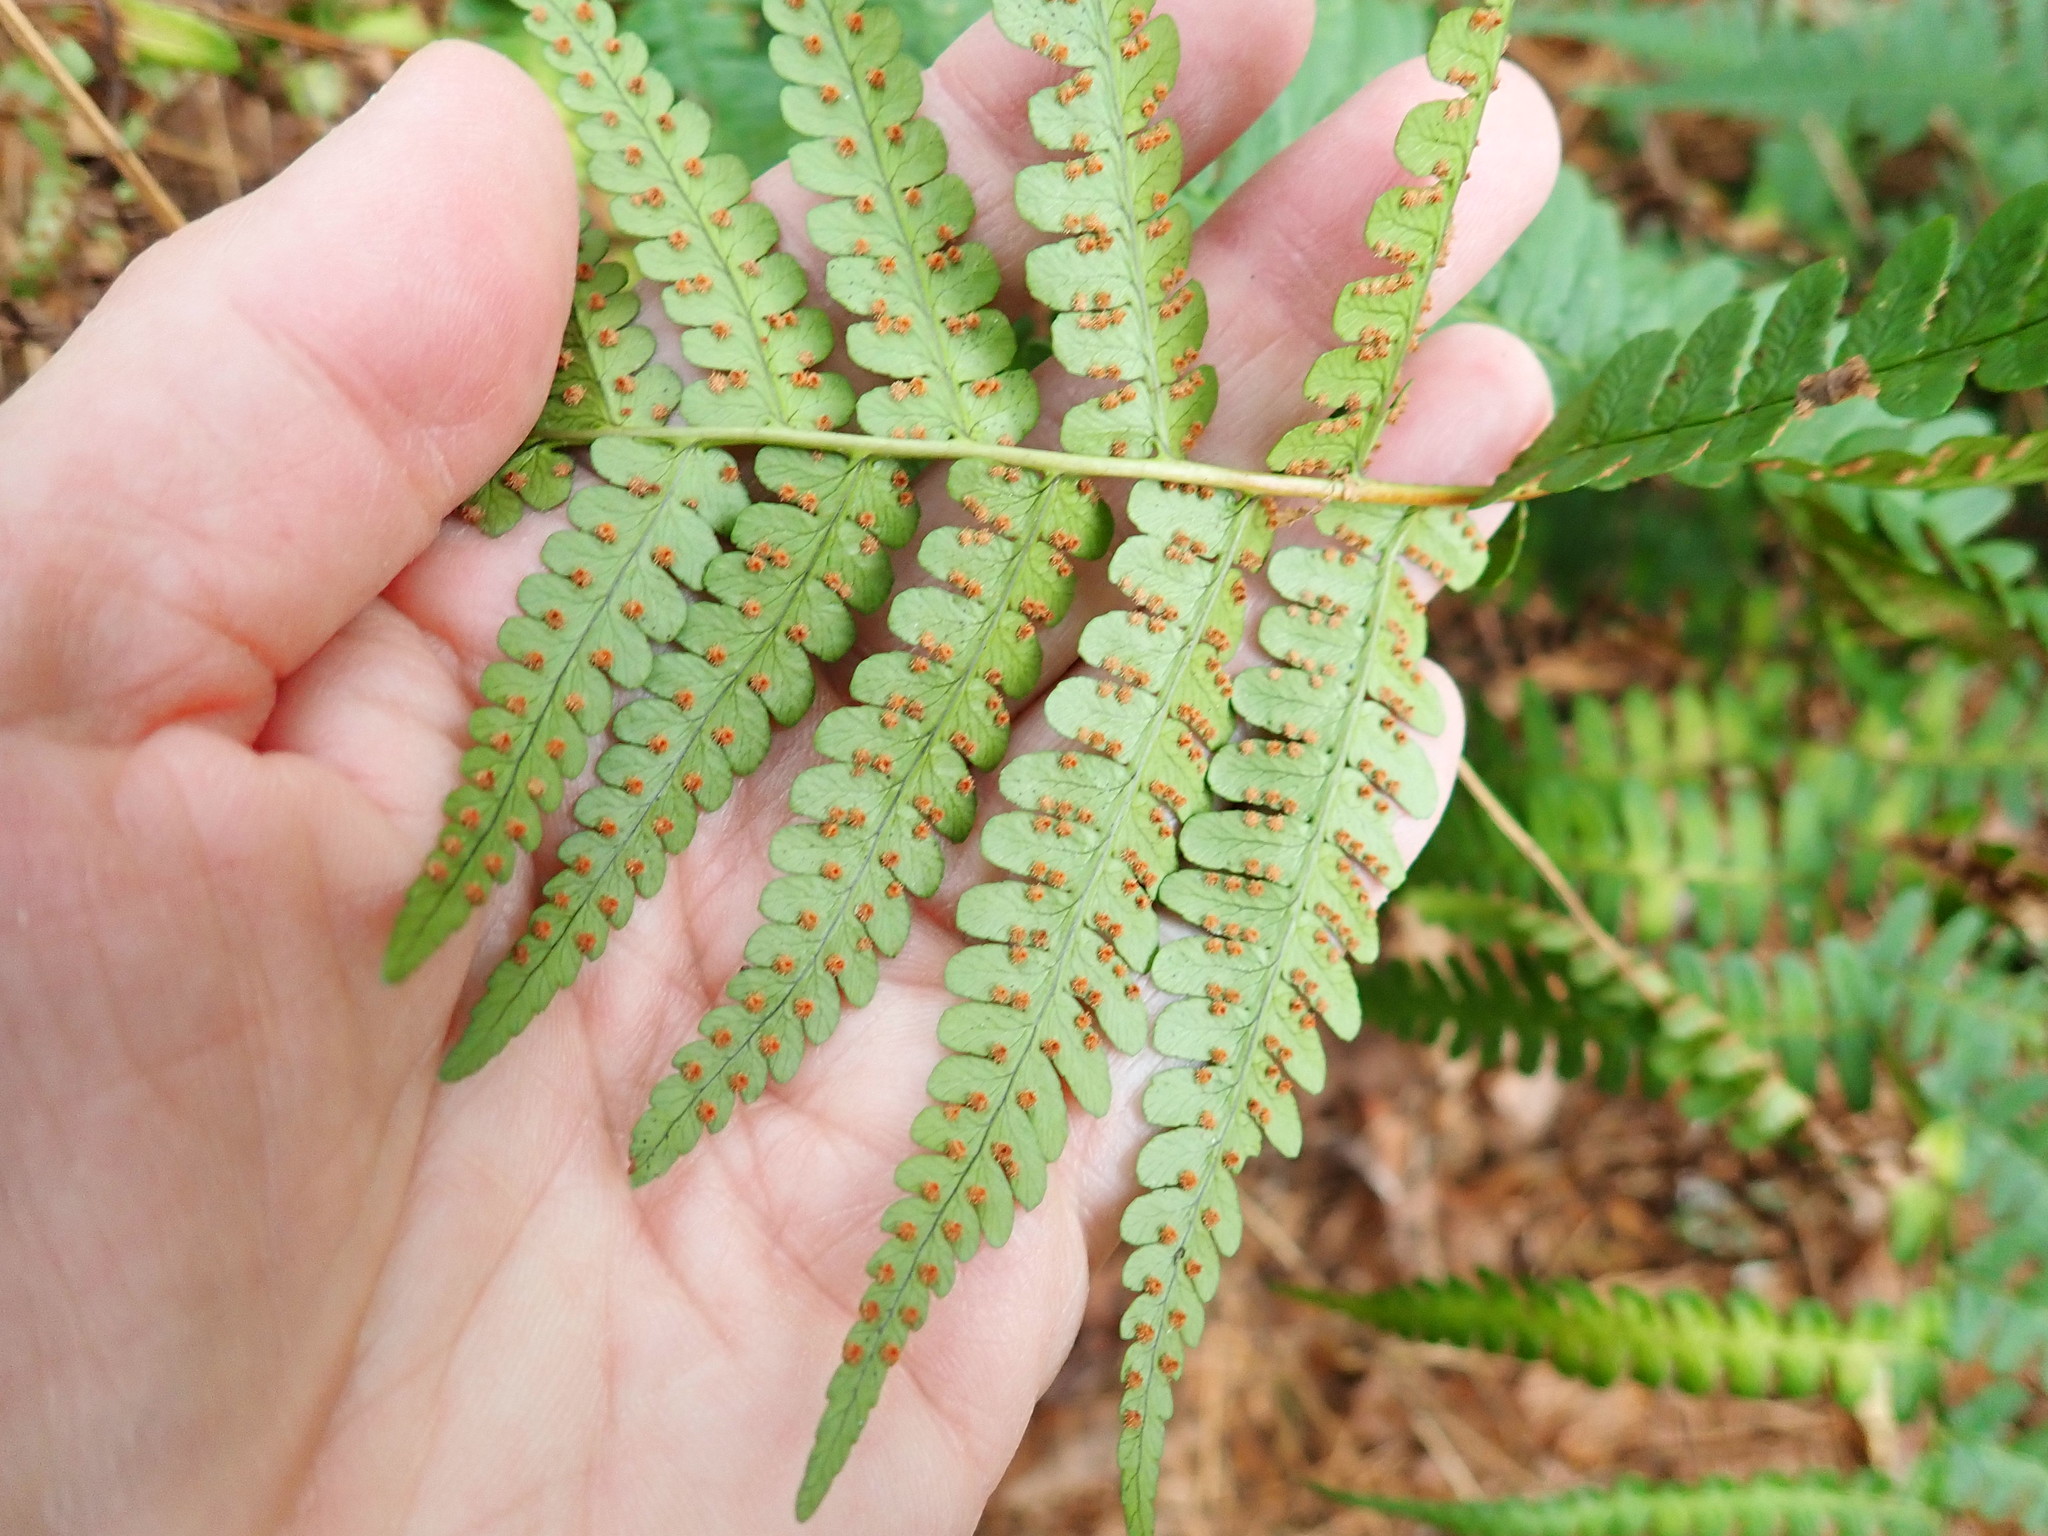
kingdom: Plantae
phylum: Tracheophyta
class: Polypodiopsida
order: Polypodiales
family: Dryopteridaceae
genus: Dryopteris
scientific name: Dryopteris marginalis
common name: Marginal wood fern
